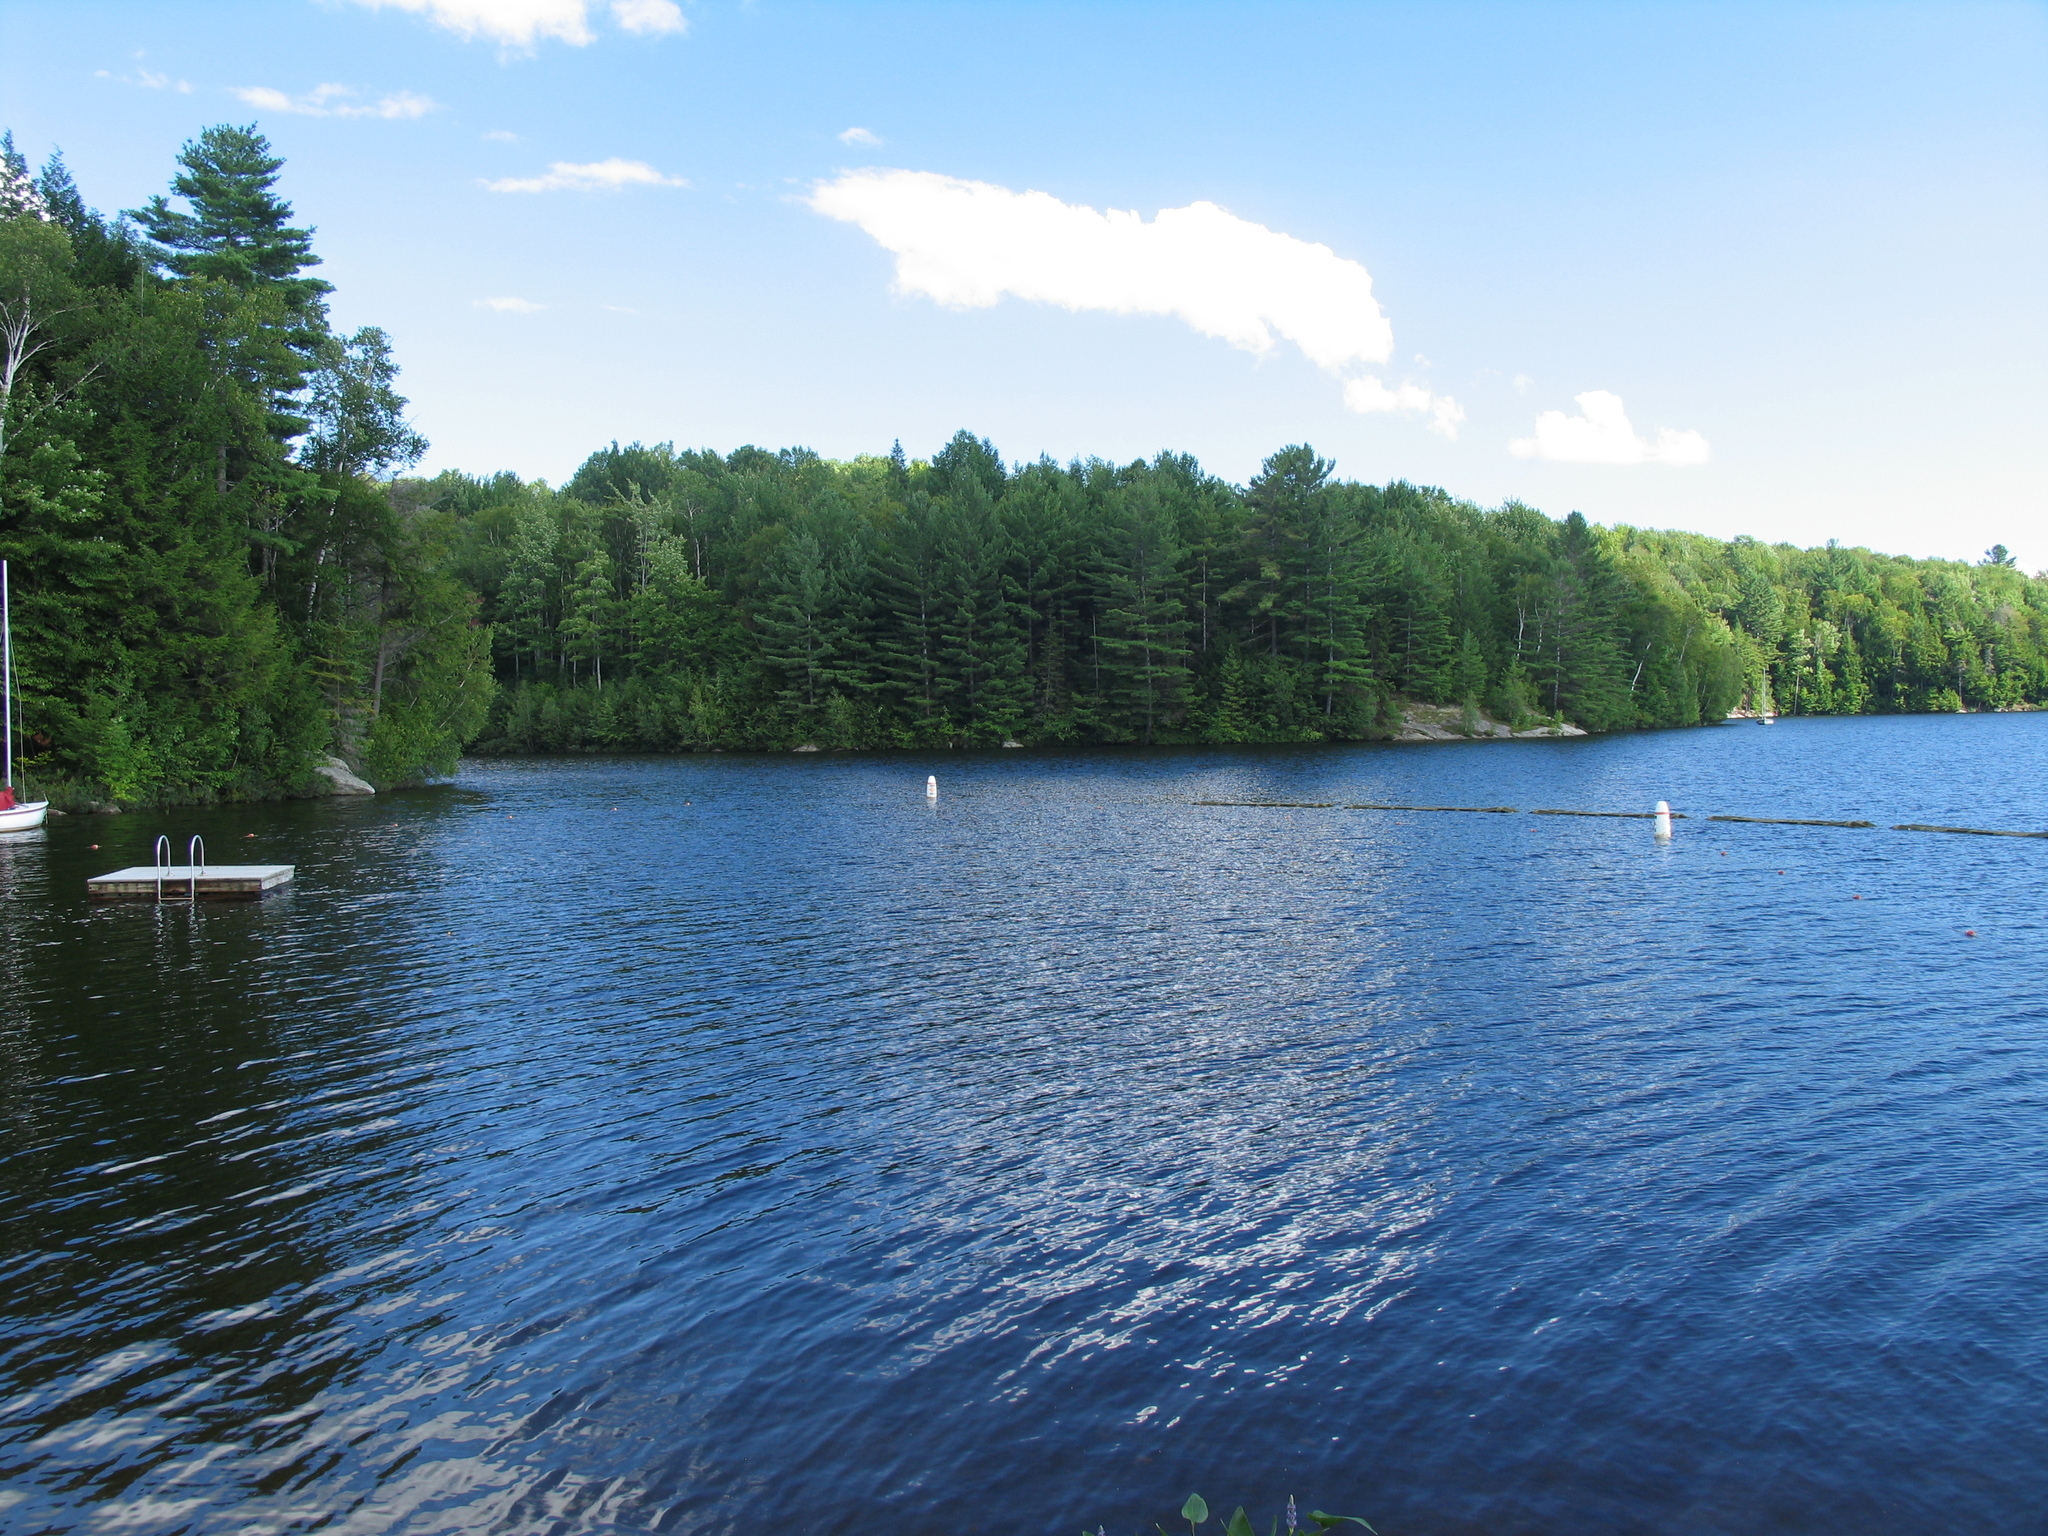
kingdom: Plantae
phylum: Tracheophyta
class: Pinopsida
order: Pinales
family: Pinaceae
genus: Pinus
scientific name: Pinus strobus
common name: Weymouth pine
